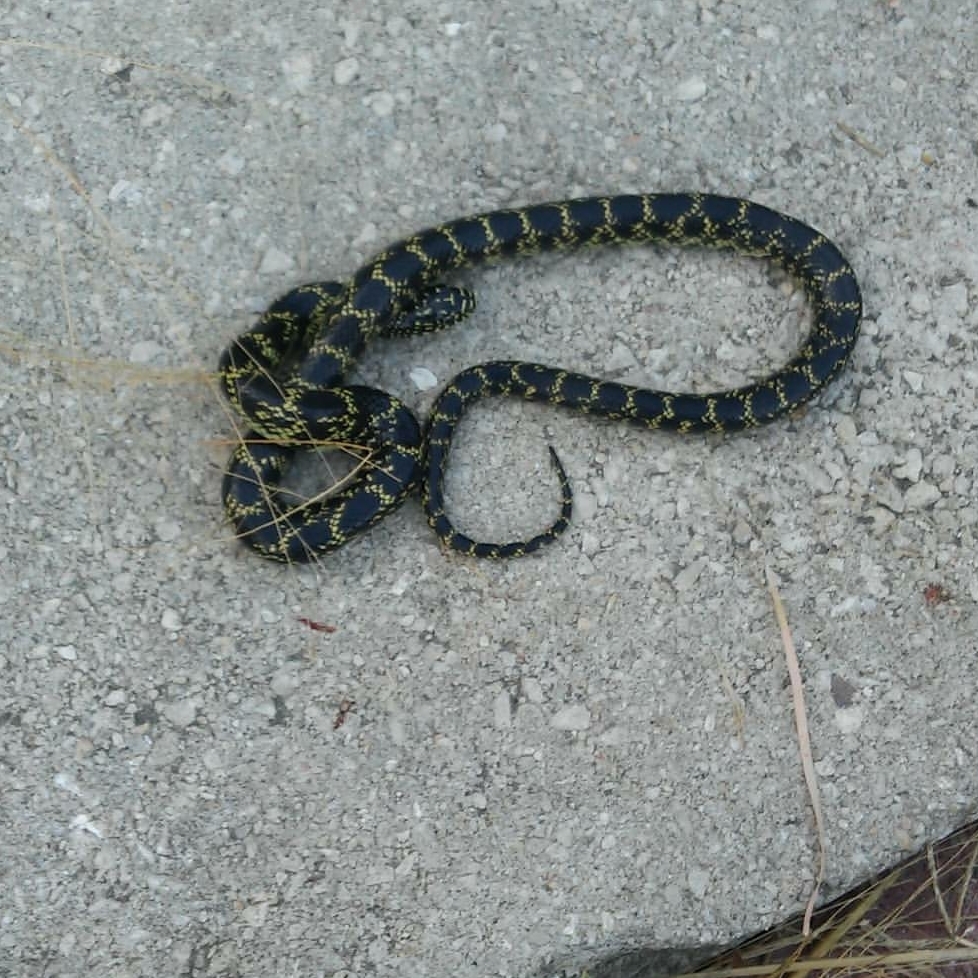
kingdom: Animalia
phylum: Chordata
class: Squamata
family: Colubridae
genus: Lampropeltis
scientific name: Lampropeltis holbrooki
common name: Speckled kingsnake
